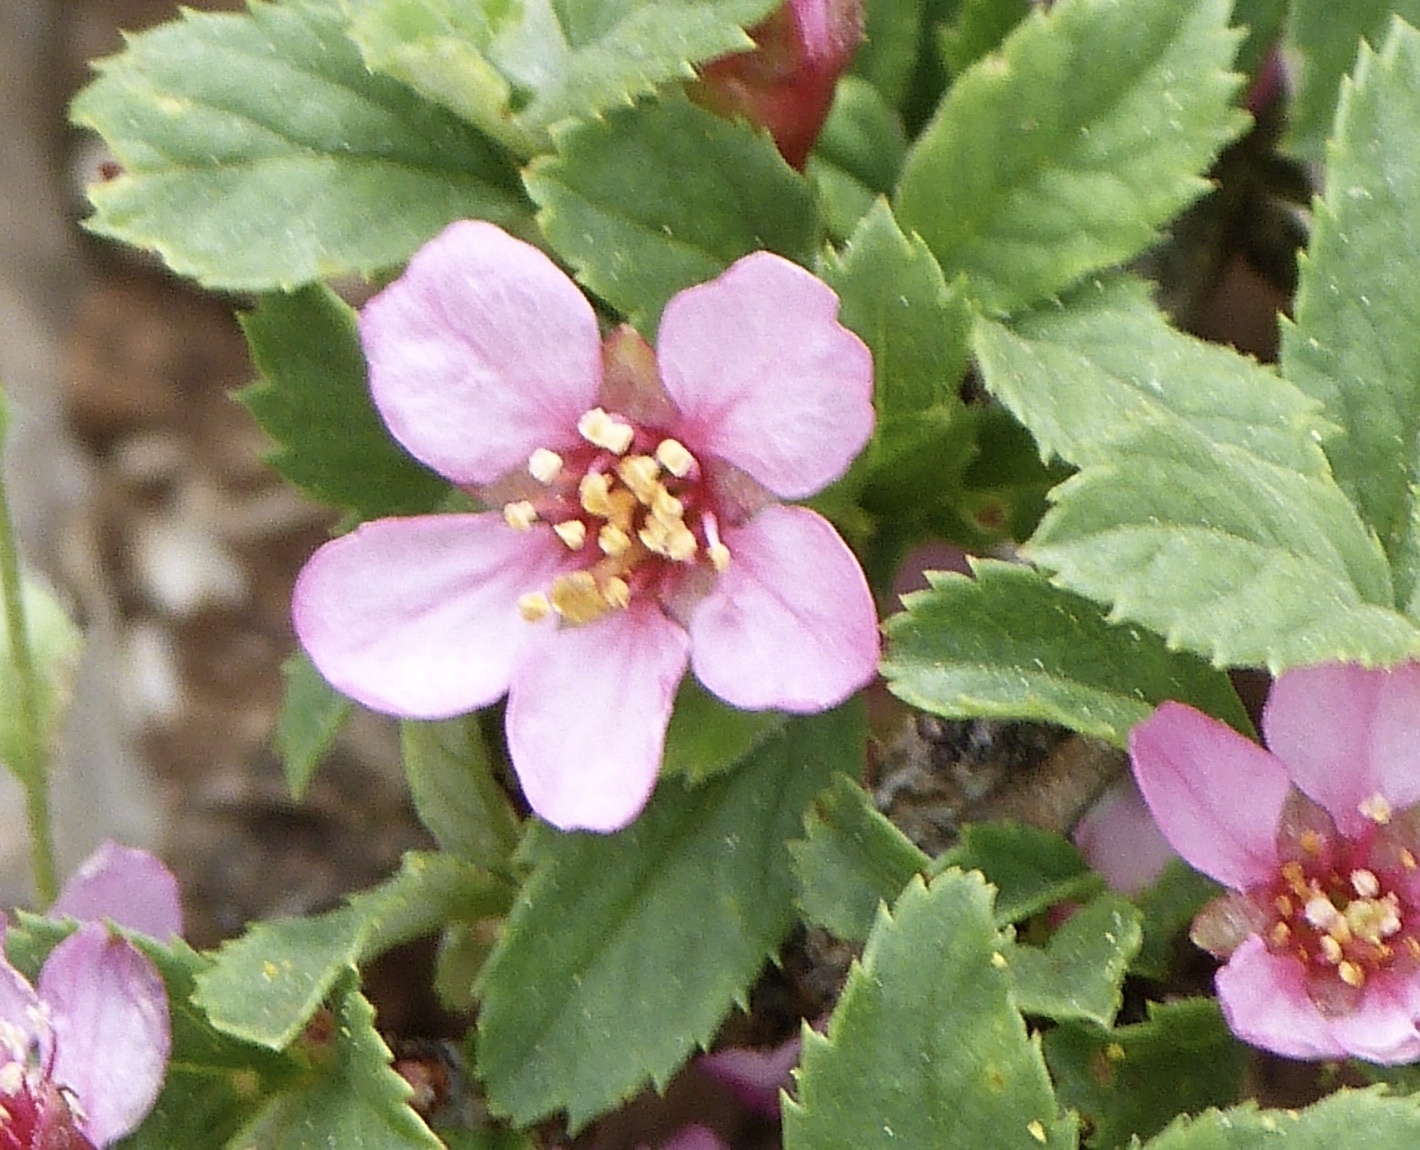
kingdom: Plantae
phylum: Tracheophyta
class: Magnoliopsida
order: Rosales
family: Rosaceae
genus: Prunus
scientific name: Prunus prostrata
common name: Mountain cherry
